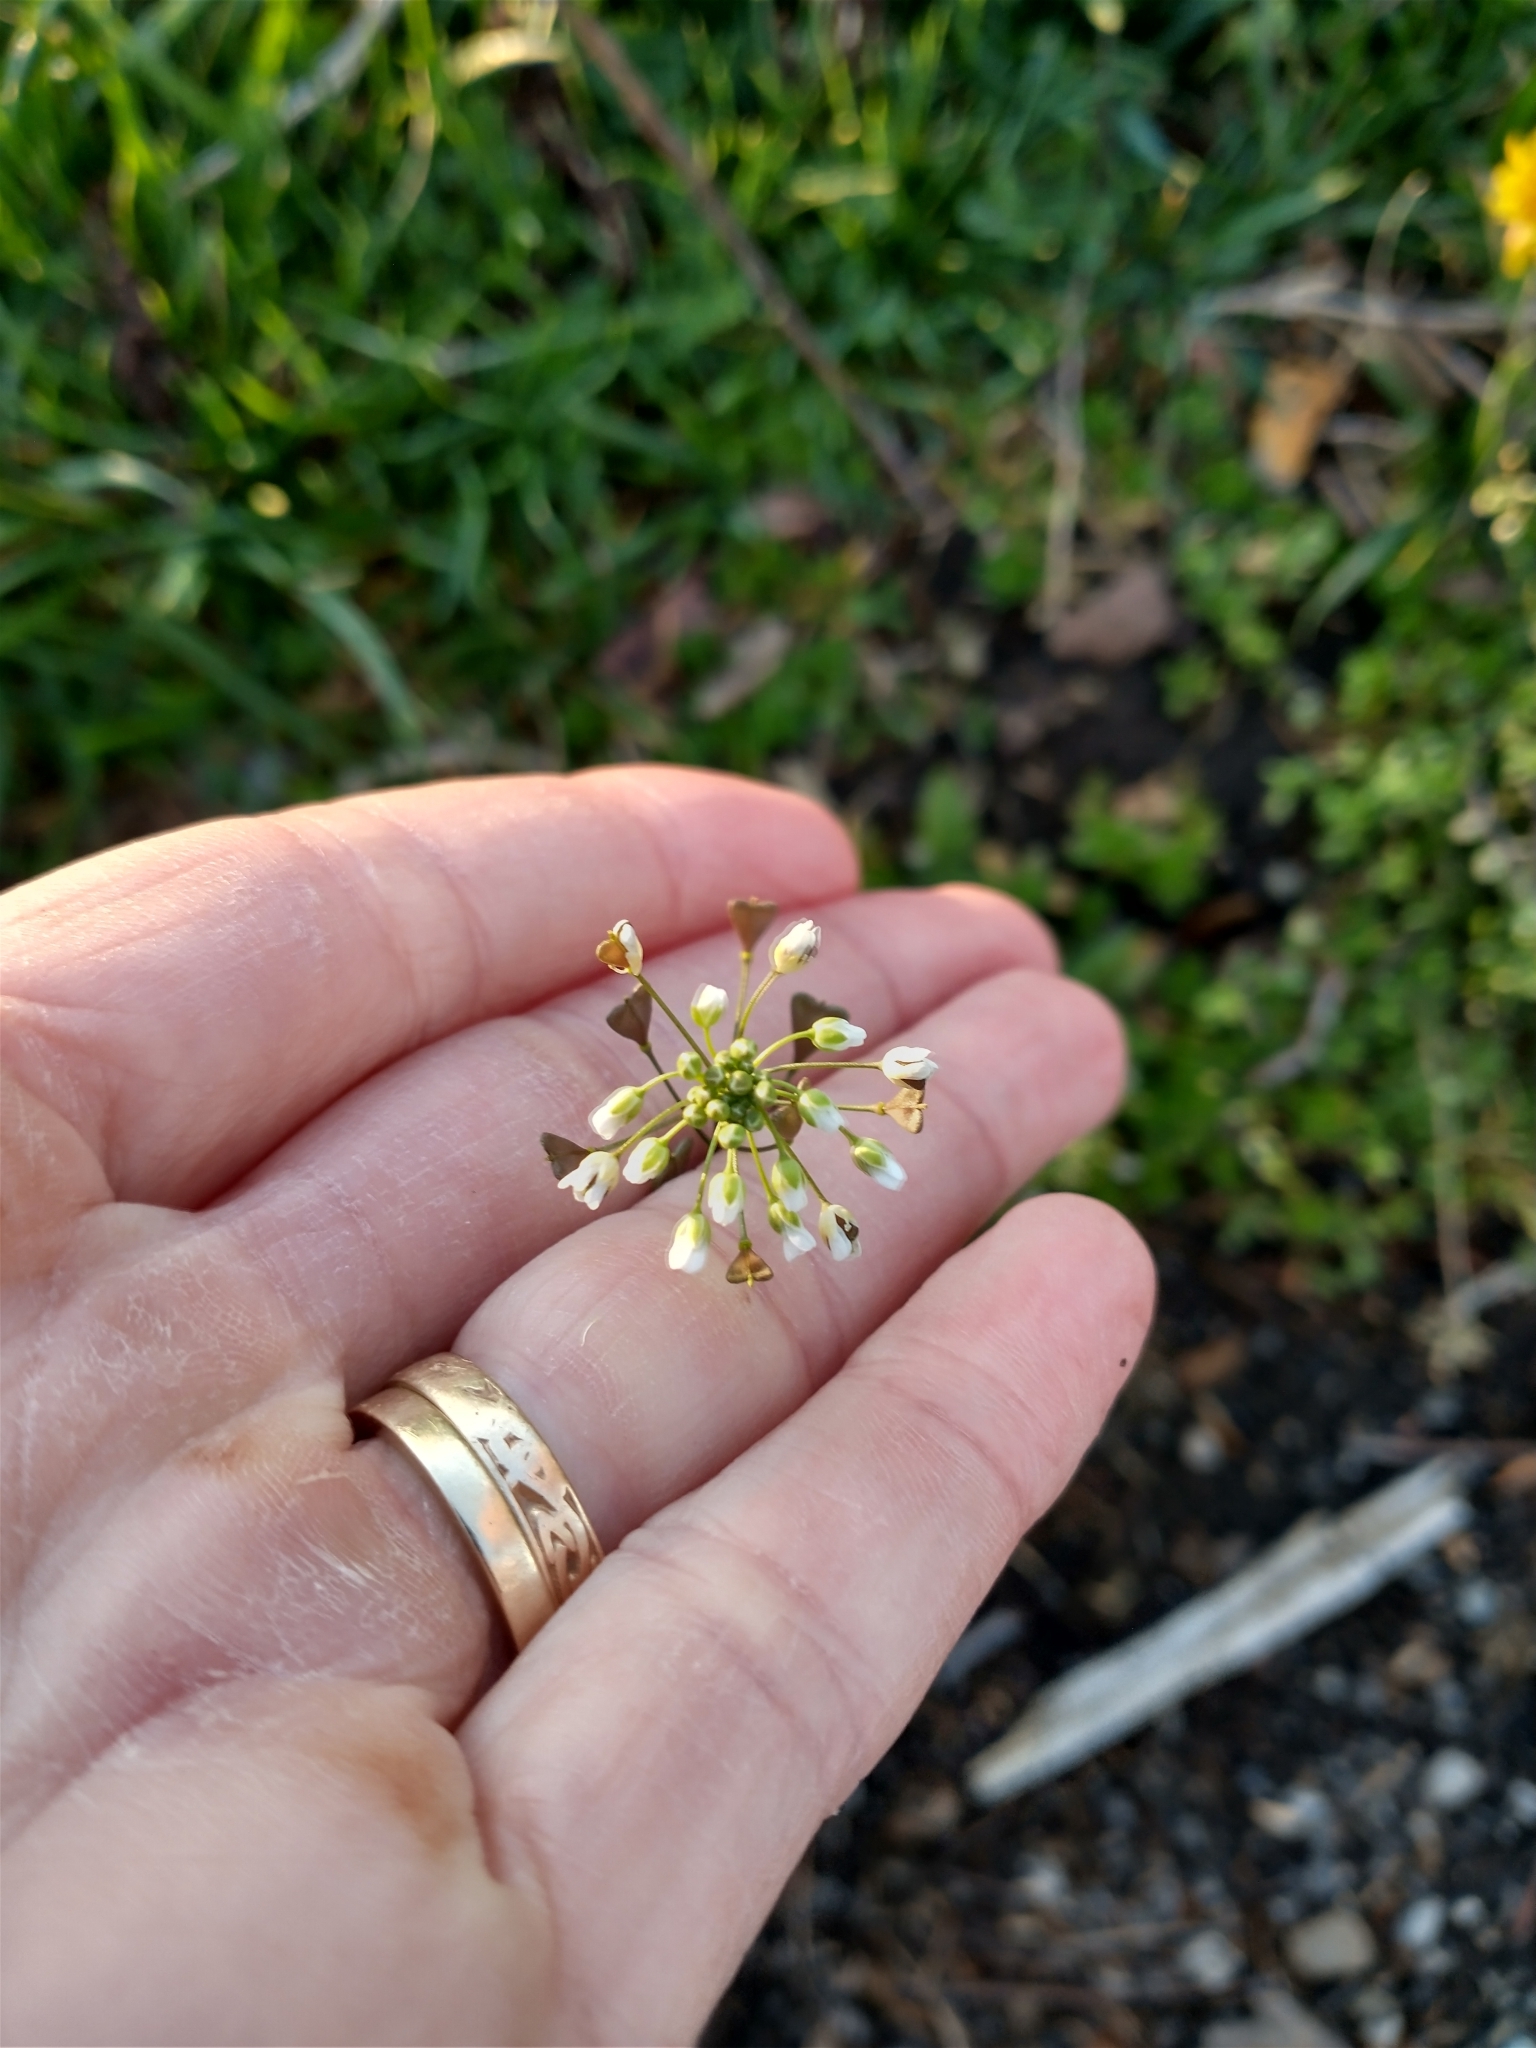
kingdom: Plantae
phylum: Tracheophyta
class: Magnoliopsida
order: Brassicales
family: Brassicaceae
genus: Capsella
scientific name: Capsella bursa-pastoris
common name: Shepherd's purse
